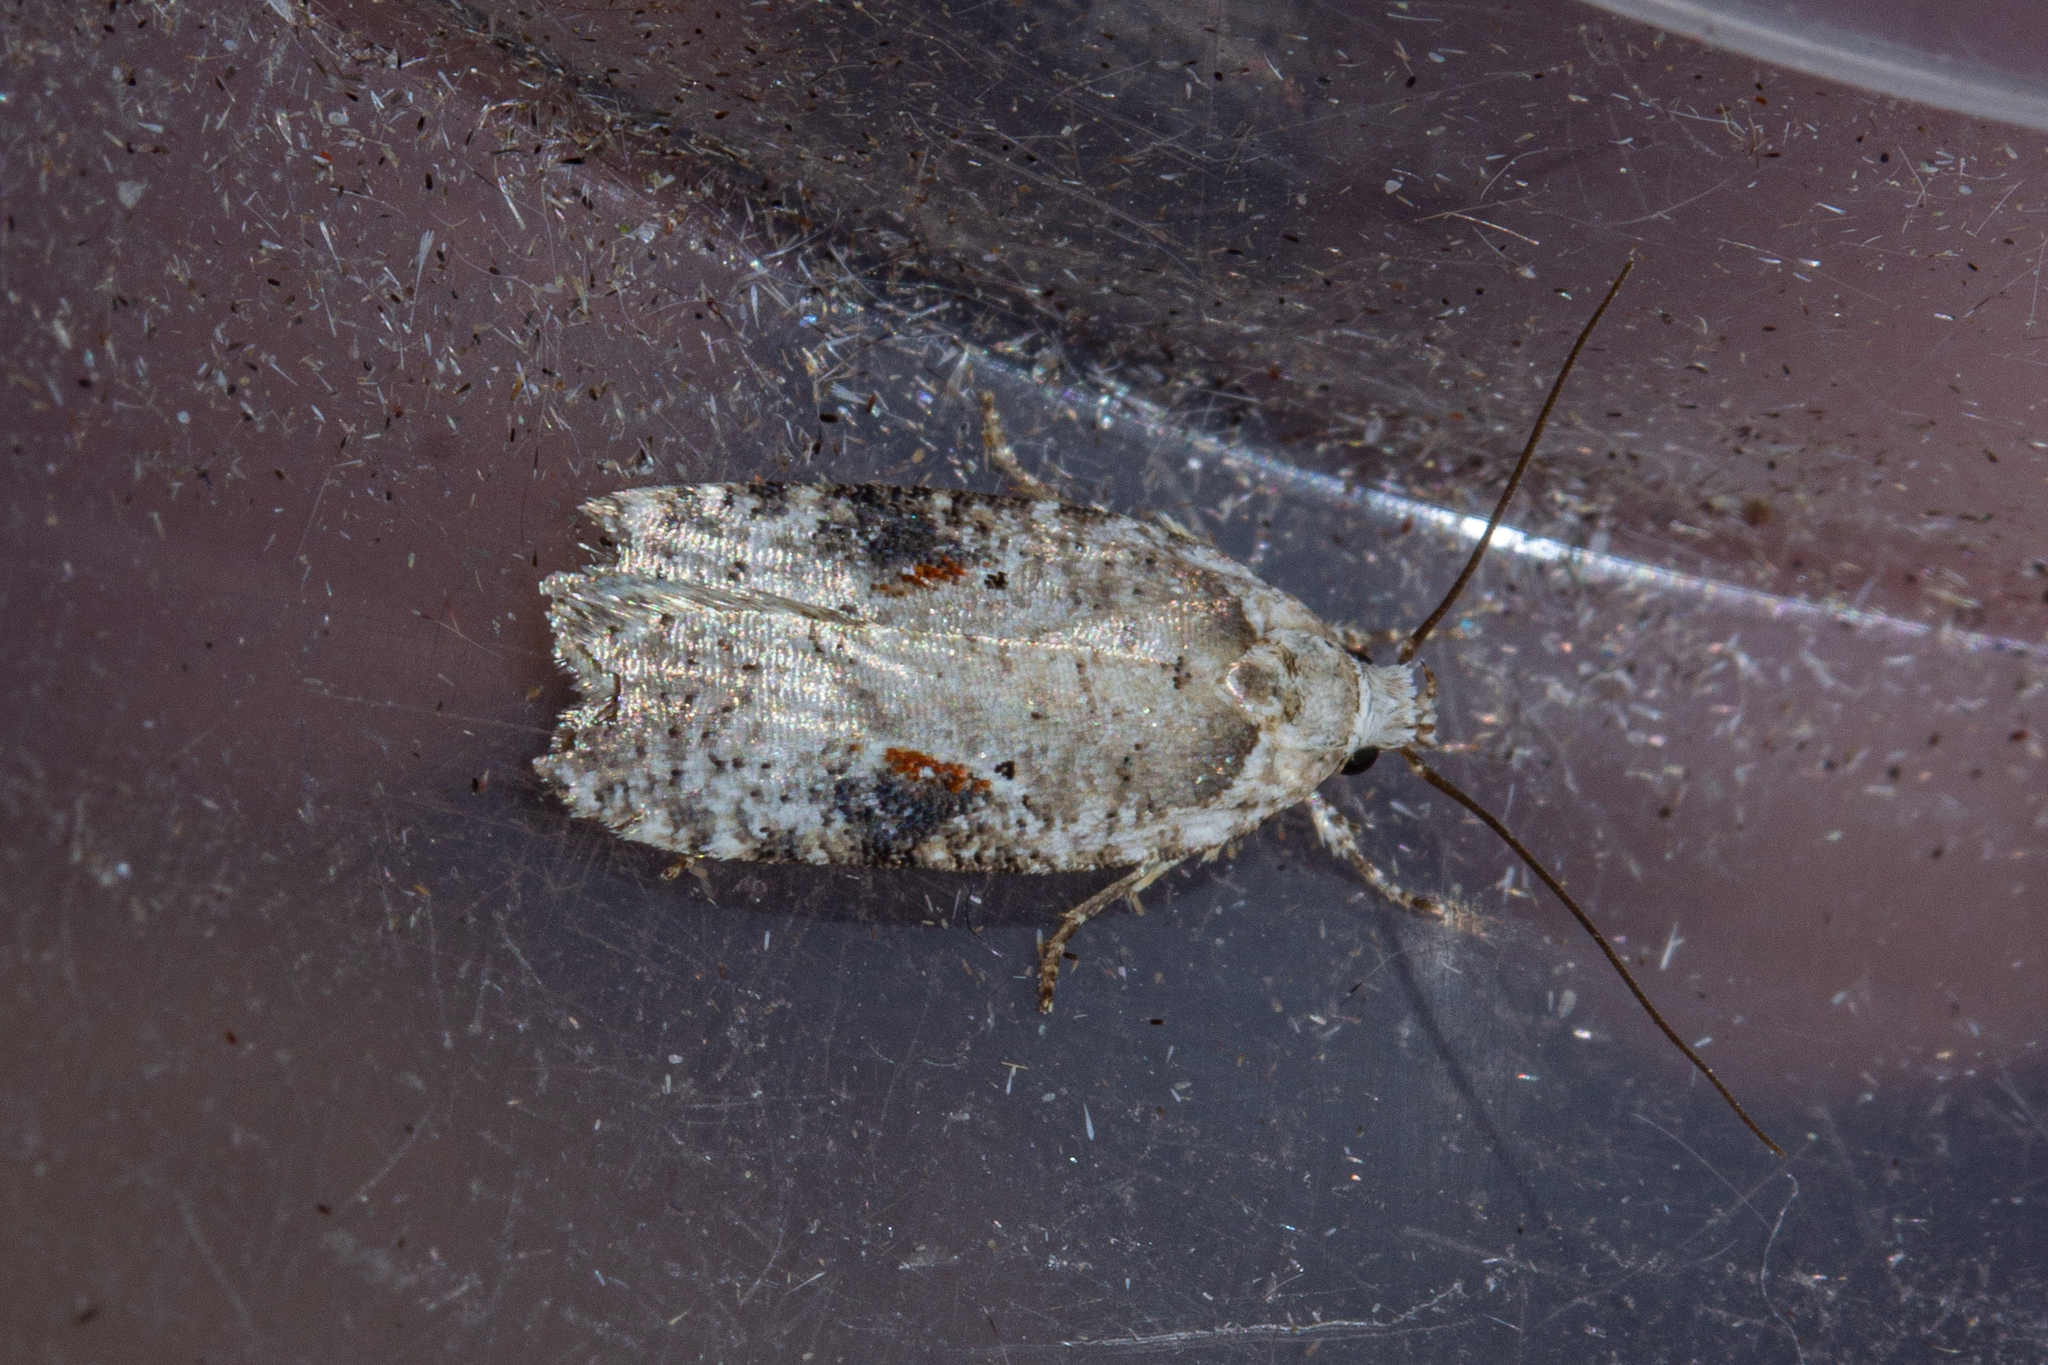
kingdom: Animalia
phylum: Arthropoda
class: Insecta
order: Lepidoptera
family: Depressariidae
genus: Agonopterix
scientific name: Agonopterix alstroemeriana
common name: Moth
